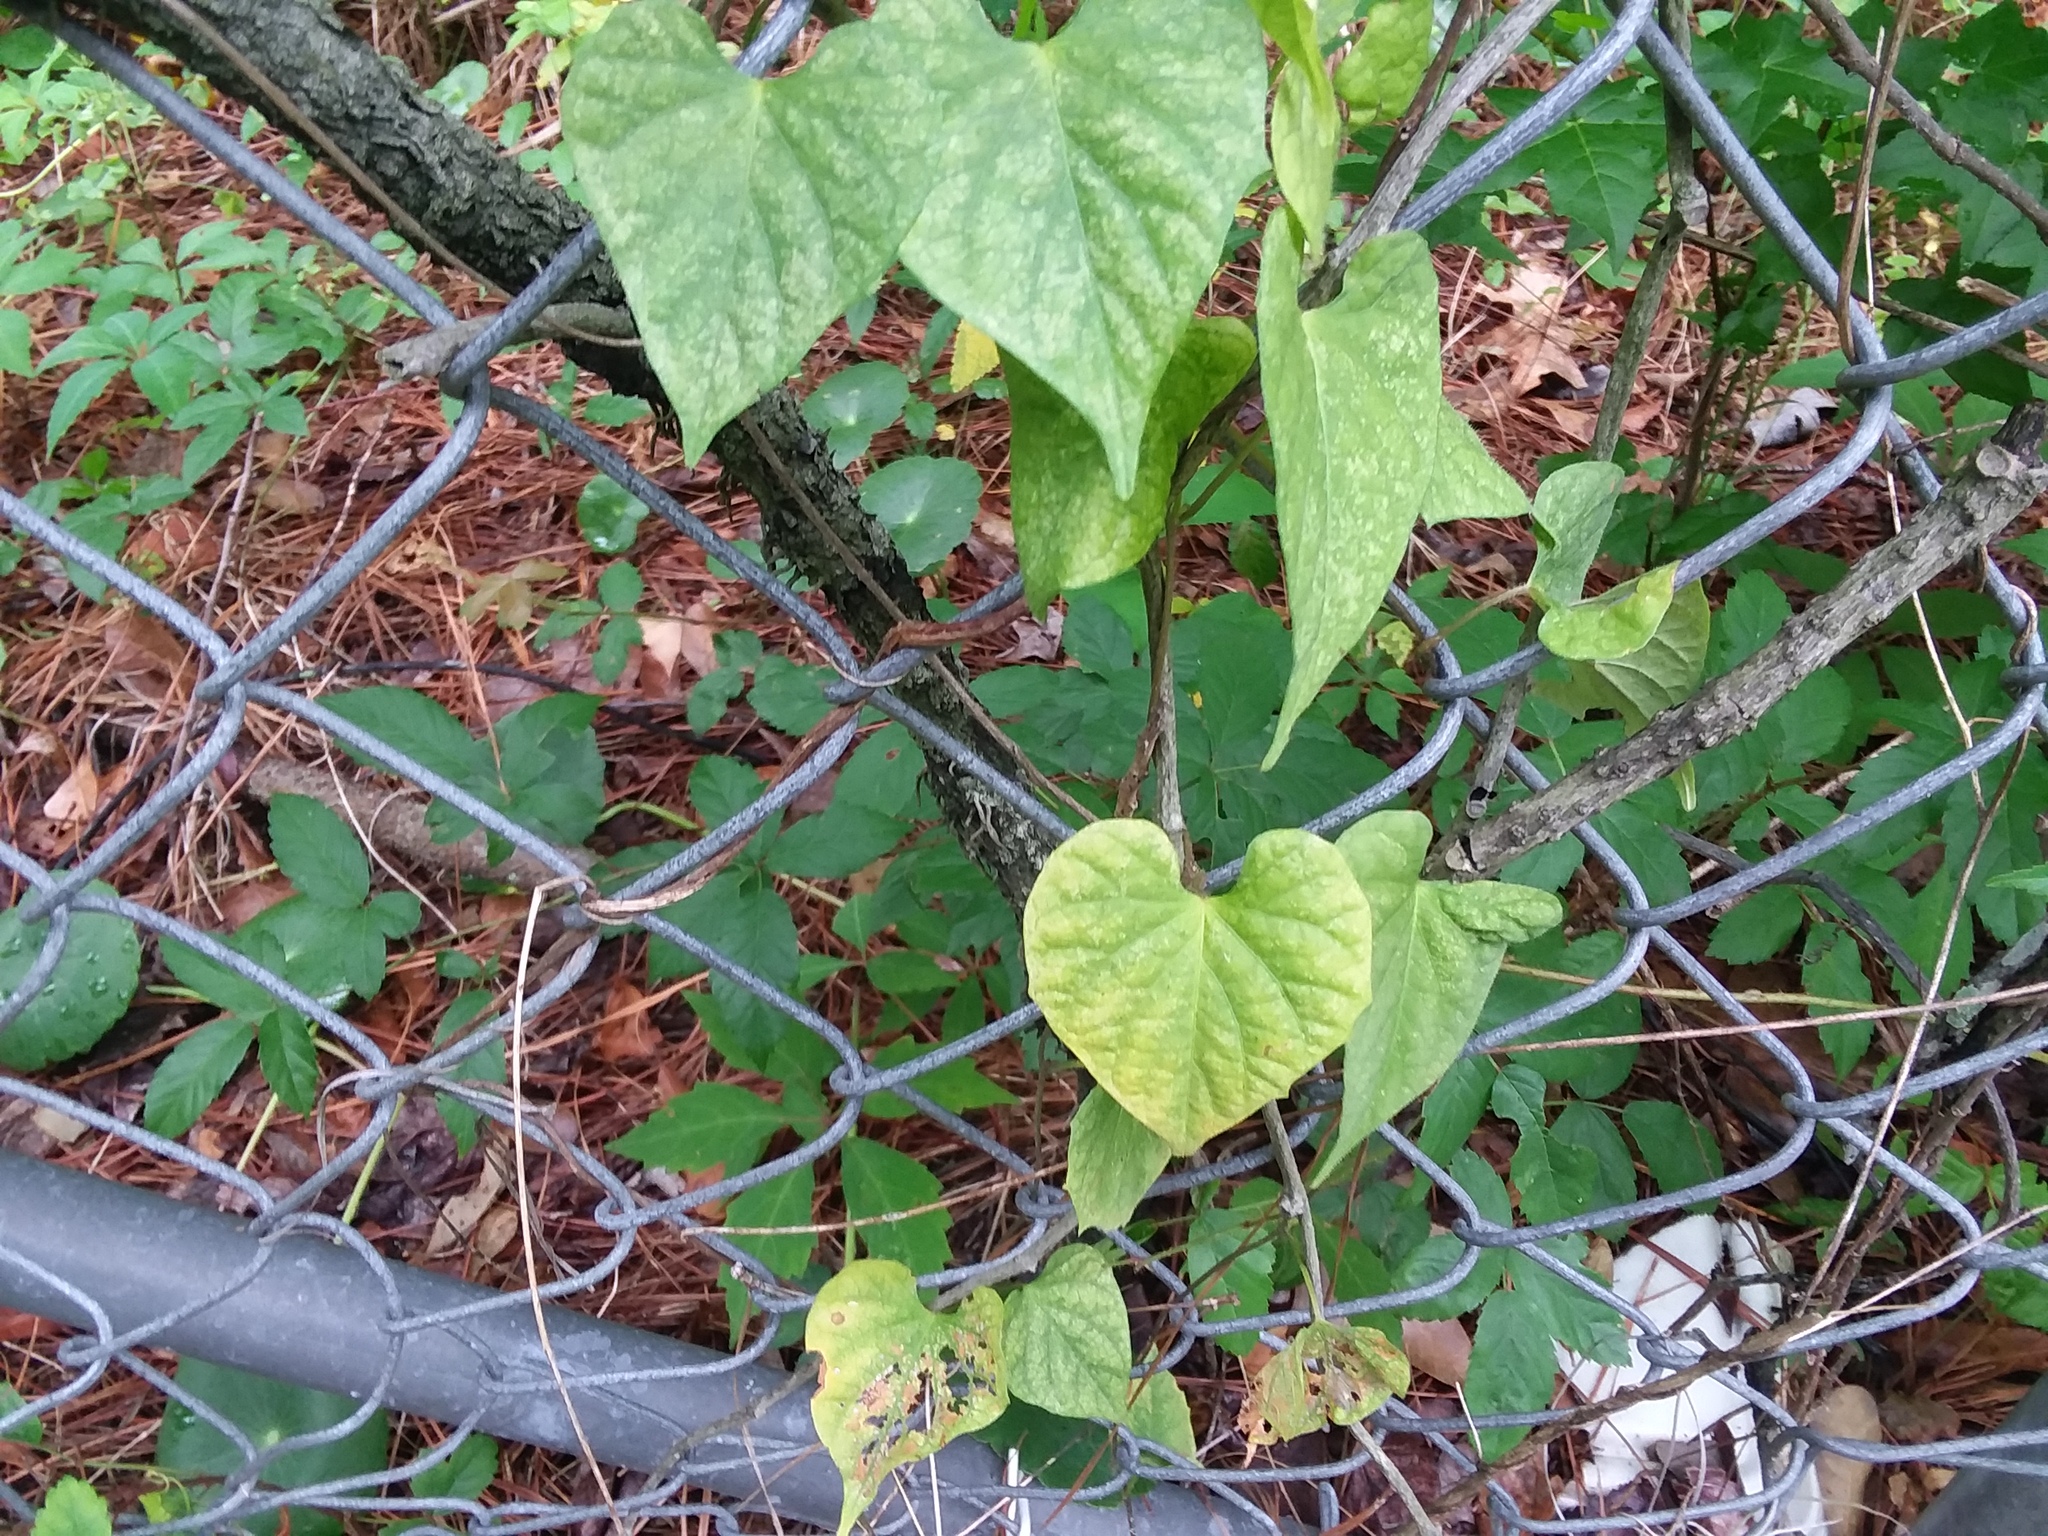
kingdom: Plantae
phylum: Tracheophyta
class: Magnoliopsida
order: Solanales
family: Convolvulaceae
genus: Ipomoea
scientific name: Ipomoea pandurata
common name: Man-of-the-earth
